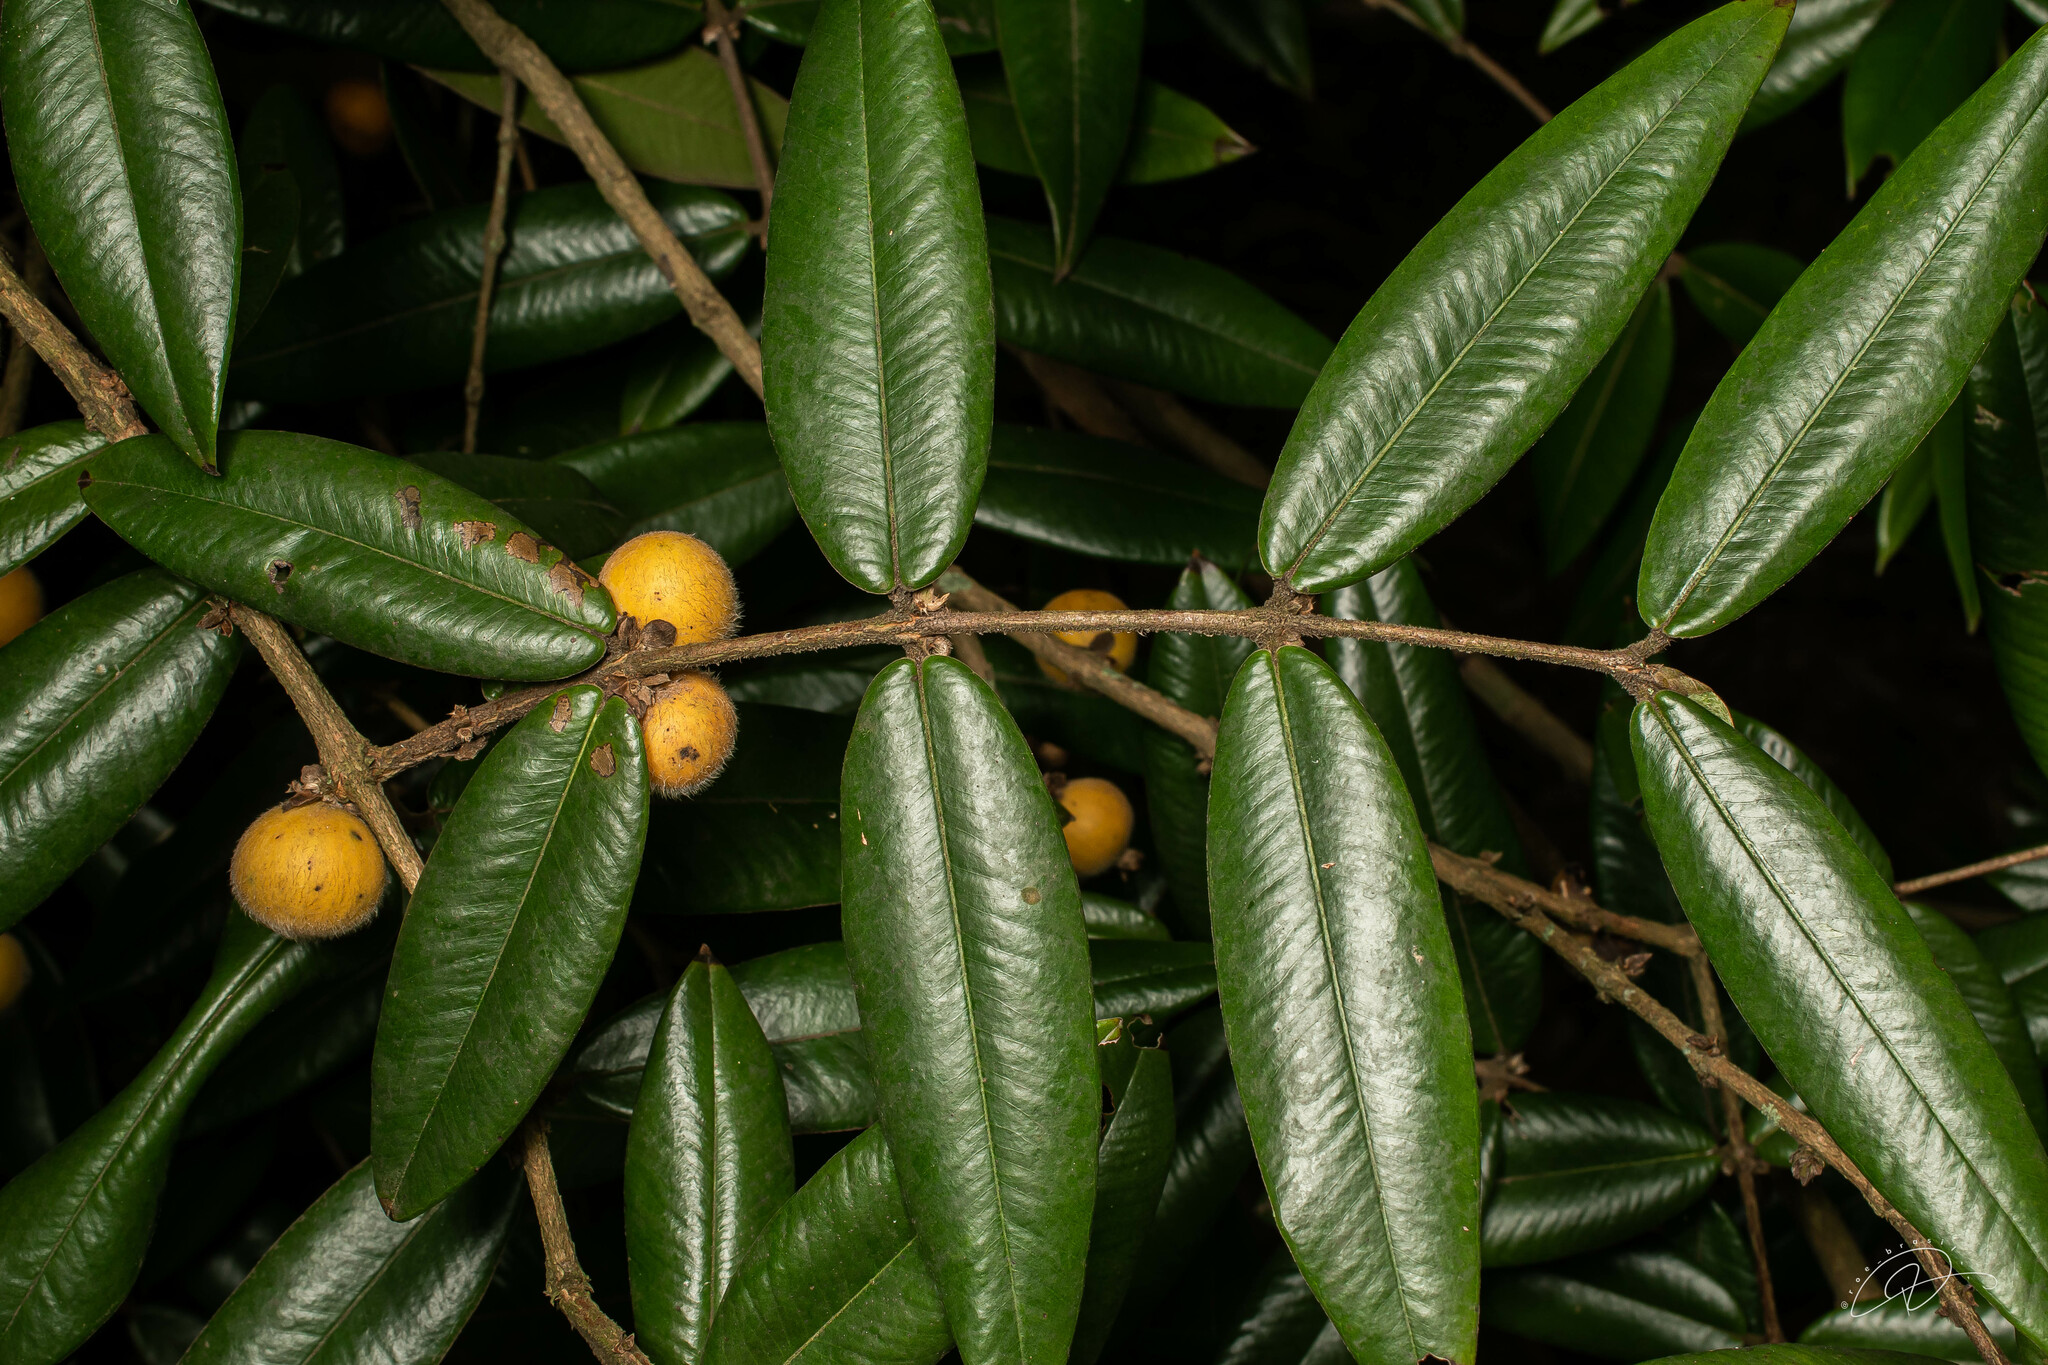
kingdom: Plantae
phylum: Tracheophyta
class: Magnoliopsida
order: Myrtales
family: Myrtaceae
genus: Myrciaria
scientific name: Myrciaria glazioviana
